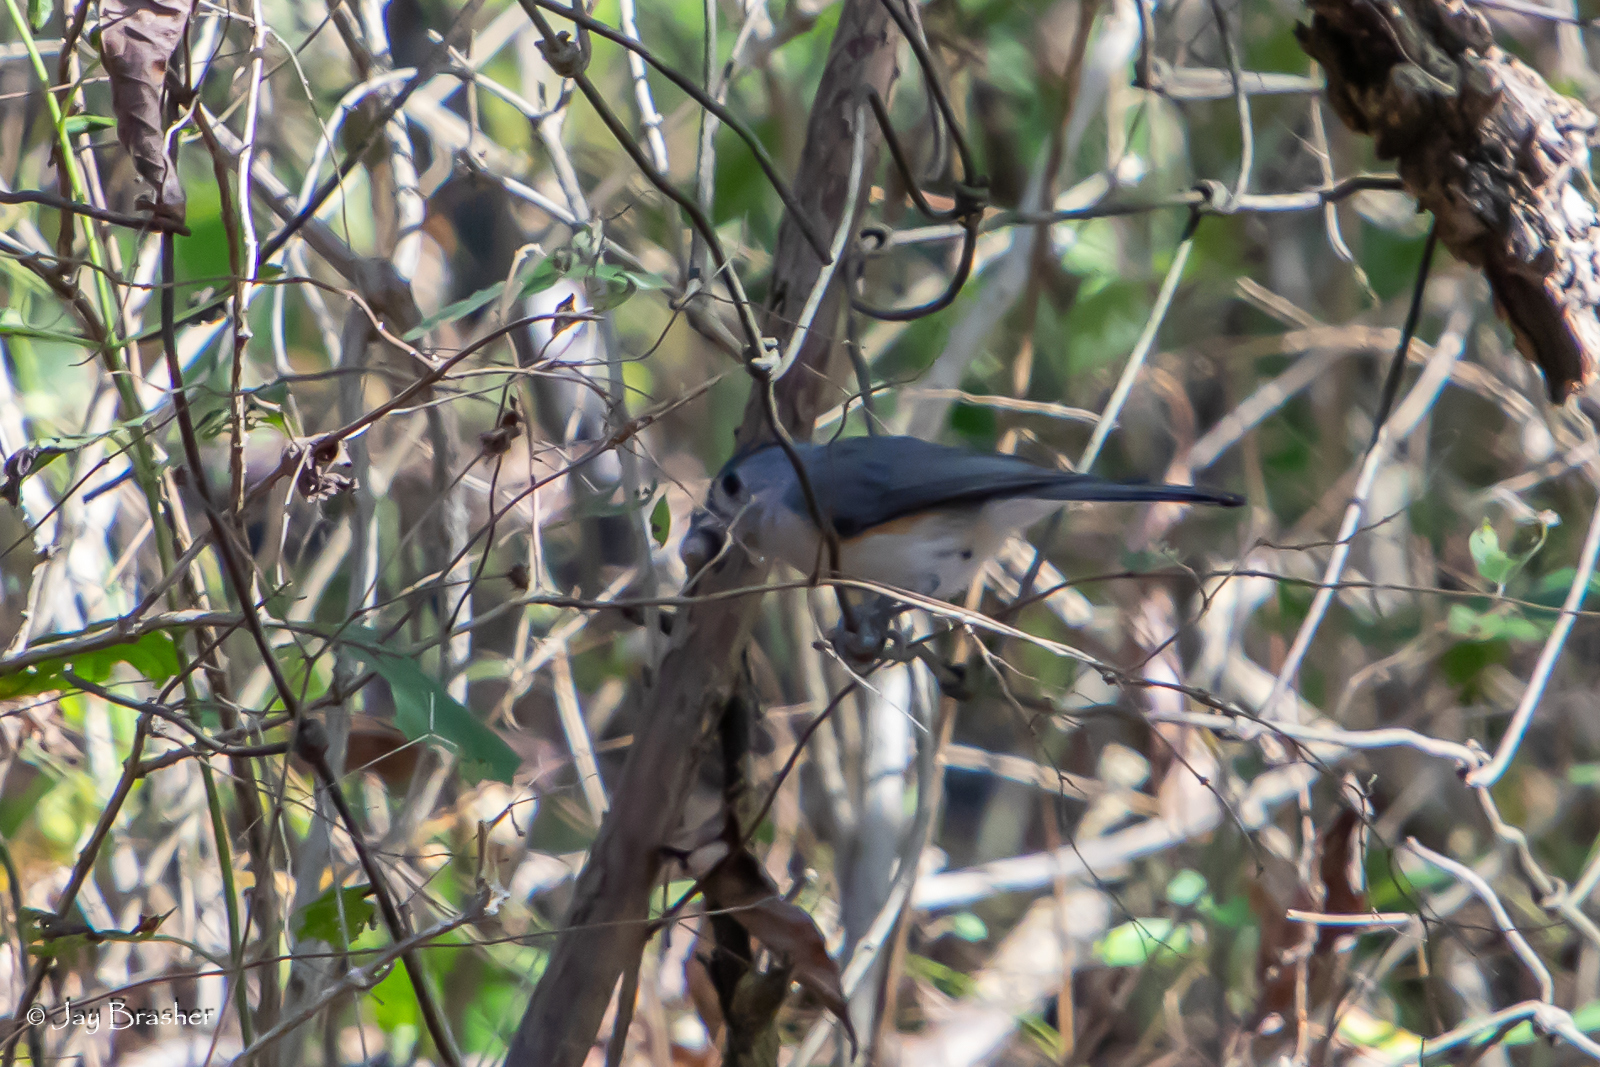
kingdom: Animalia
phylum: Chordata
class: Aves
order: Passeriformes
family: Paridae
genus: Baeolophus
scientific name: Baeolophus bicolor
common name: Tufted titmouse
